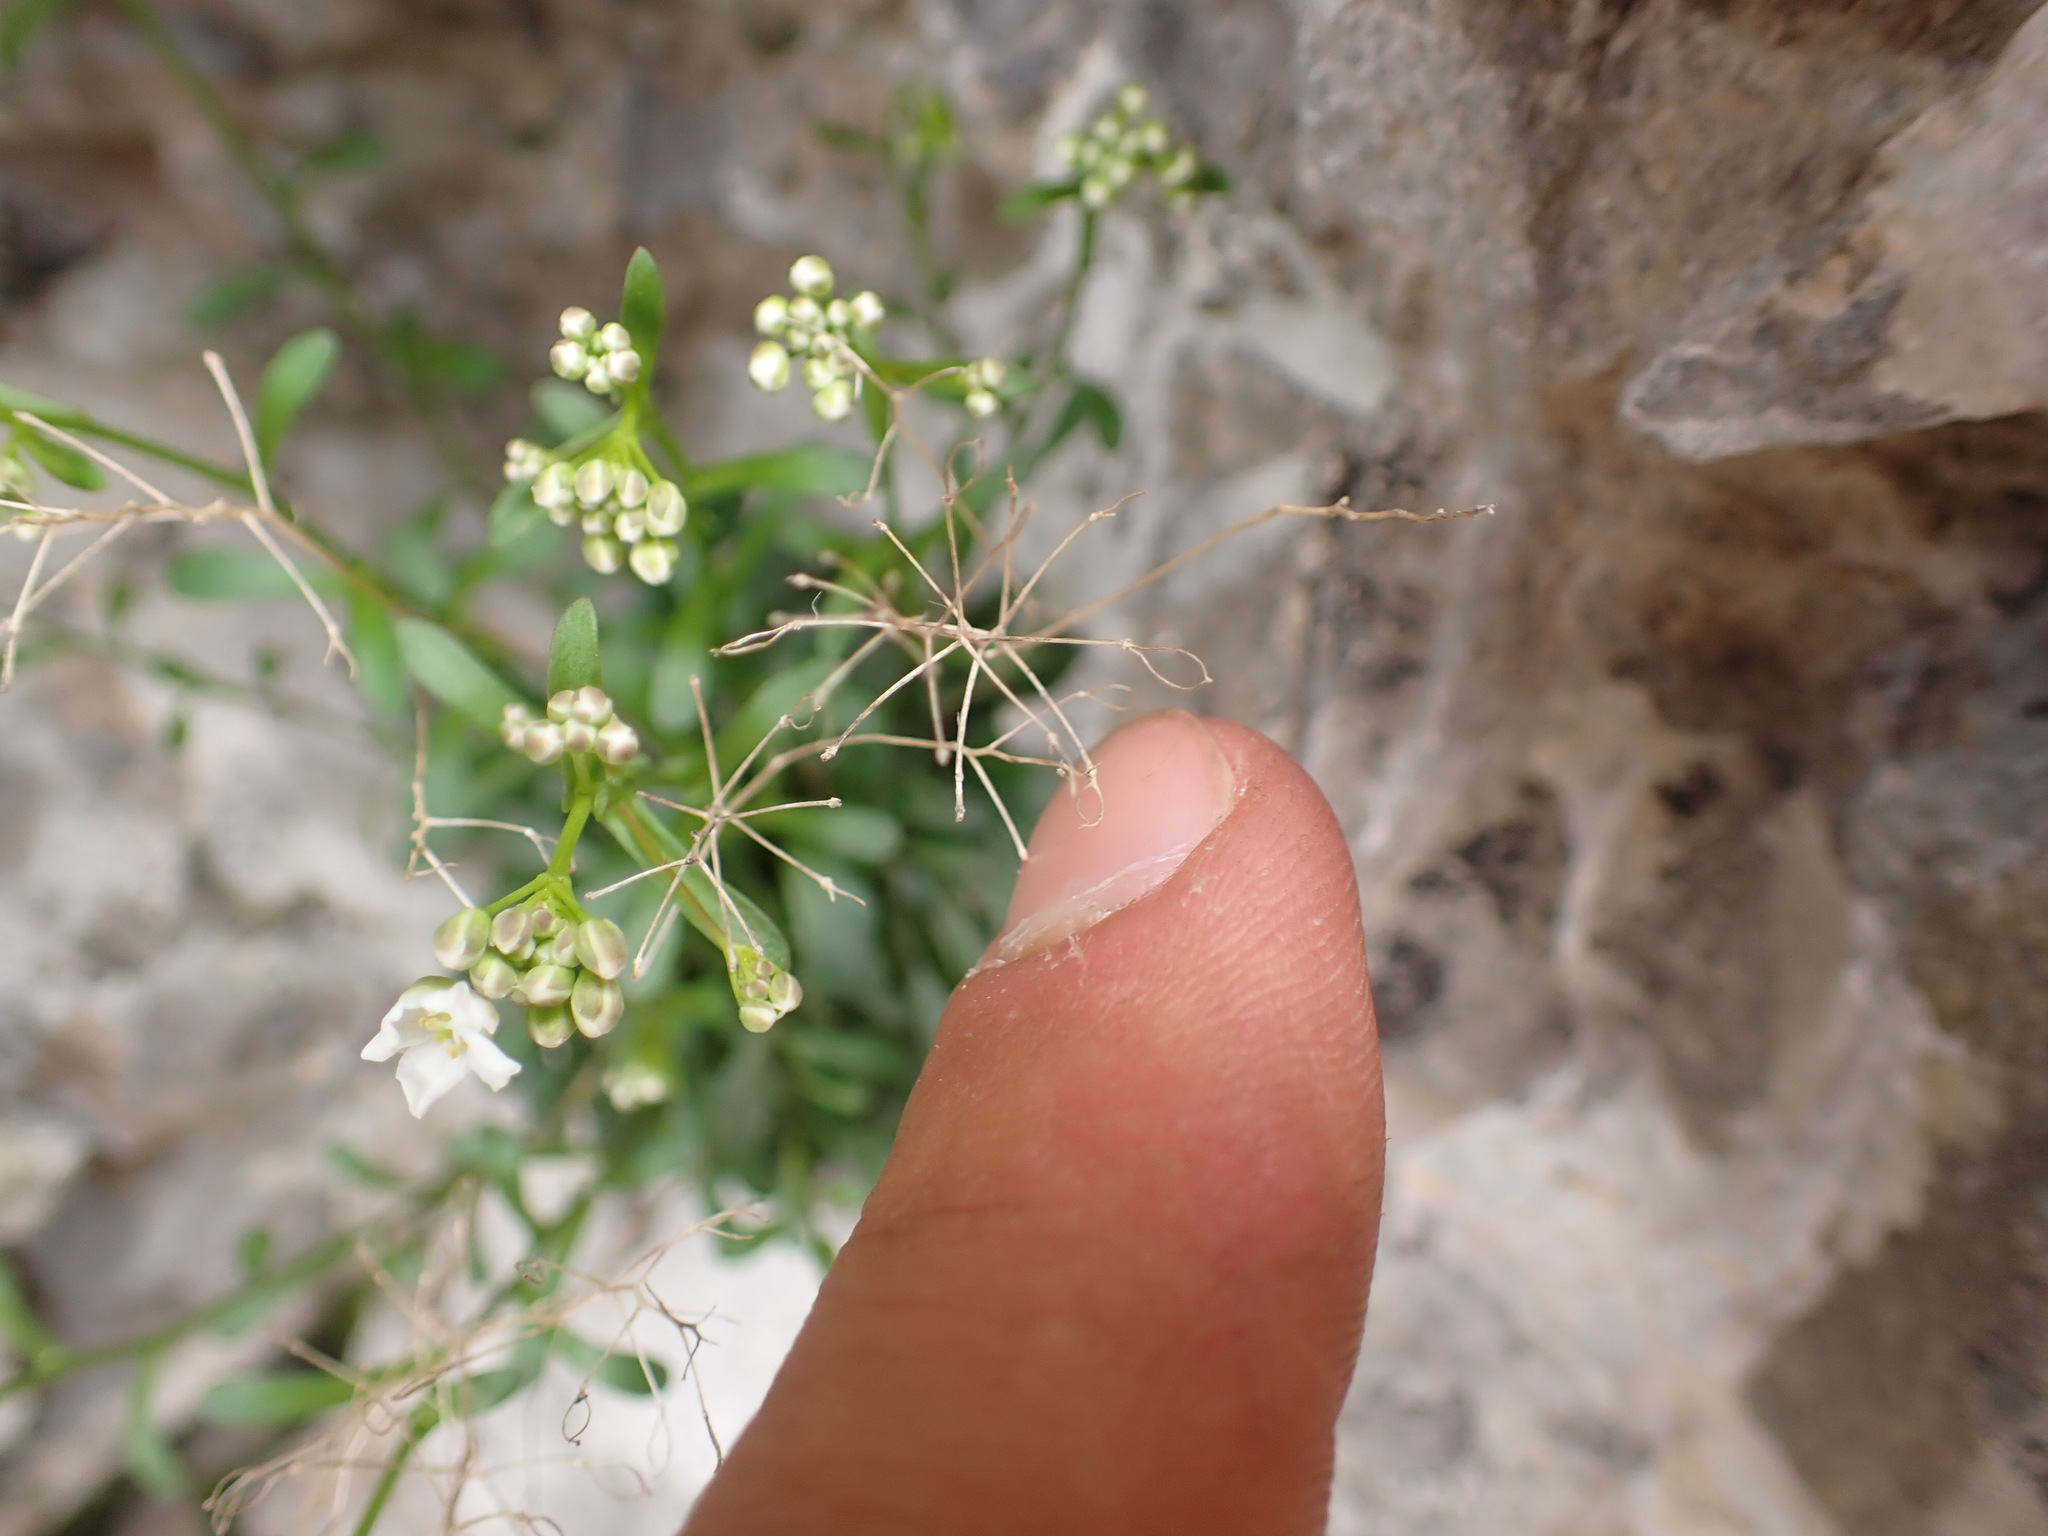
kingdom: Plantae
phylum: Tracheophyta
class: Magnoliopsida
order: Brassicales
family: Brassicaceae
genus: Kernera
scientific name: Kernera saxatilis
